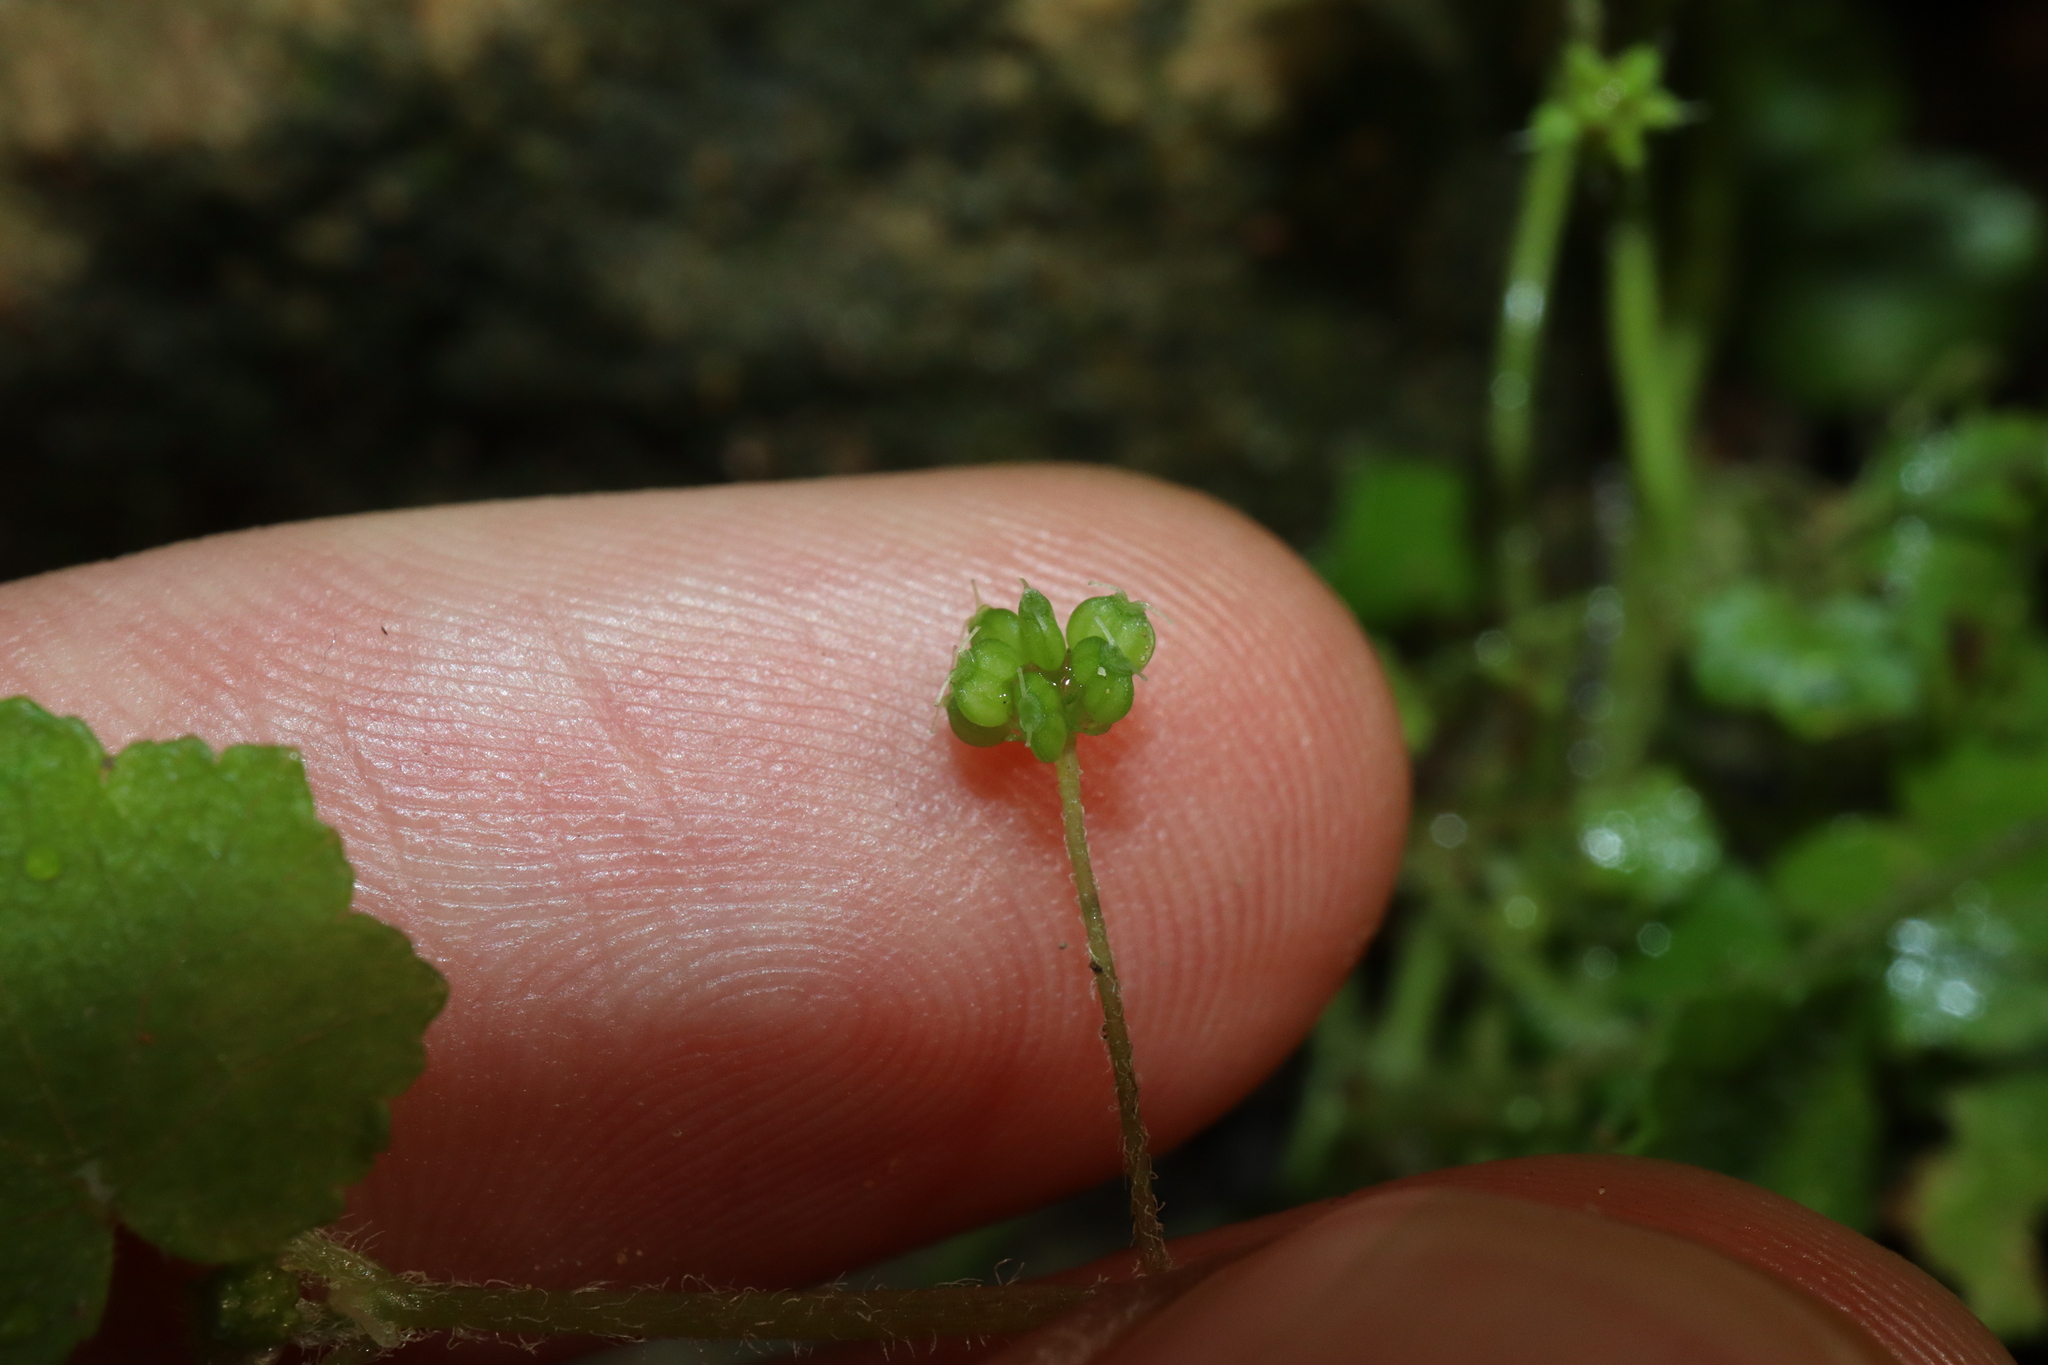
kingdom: Plantae
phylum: Tracheophyta
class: Magnoliopsida
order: Apiales
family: Araliaceae
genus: Hydrocotyle
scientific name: Hydrocotyle hirta
